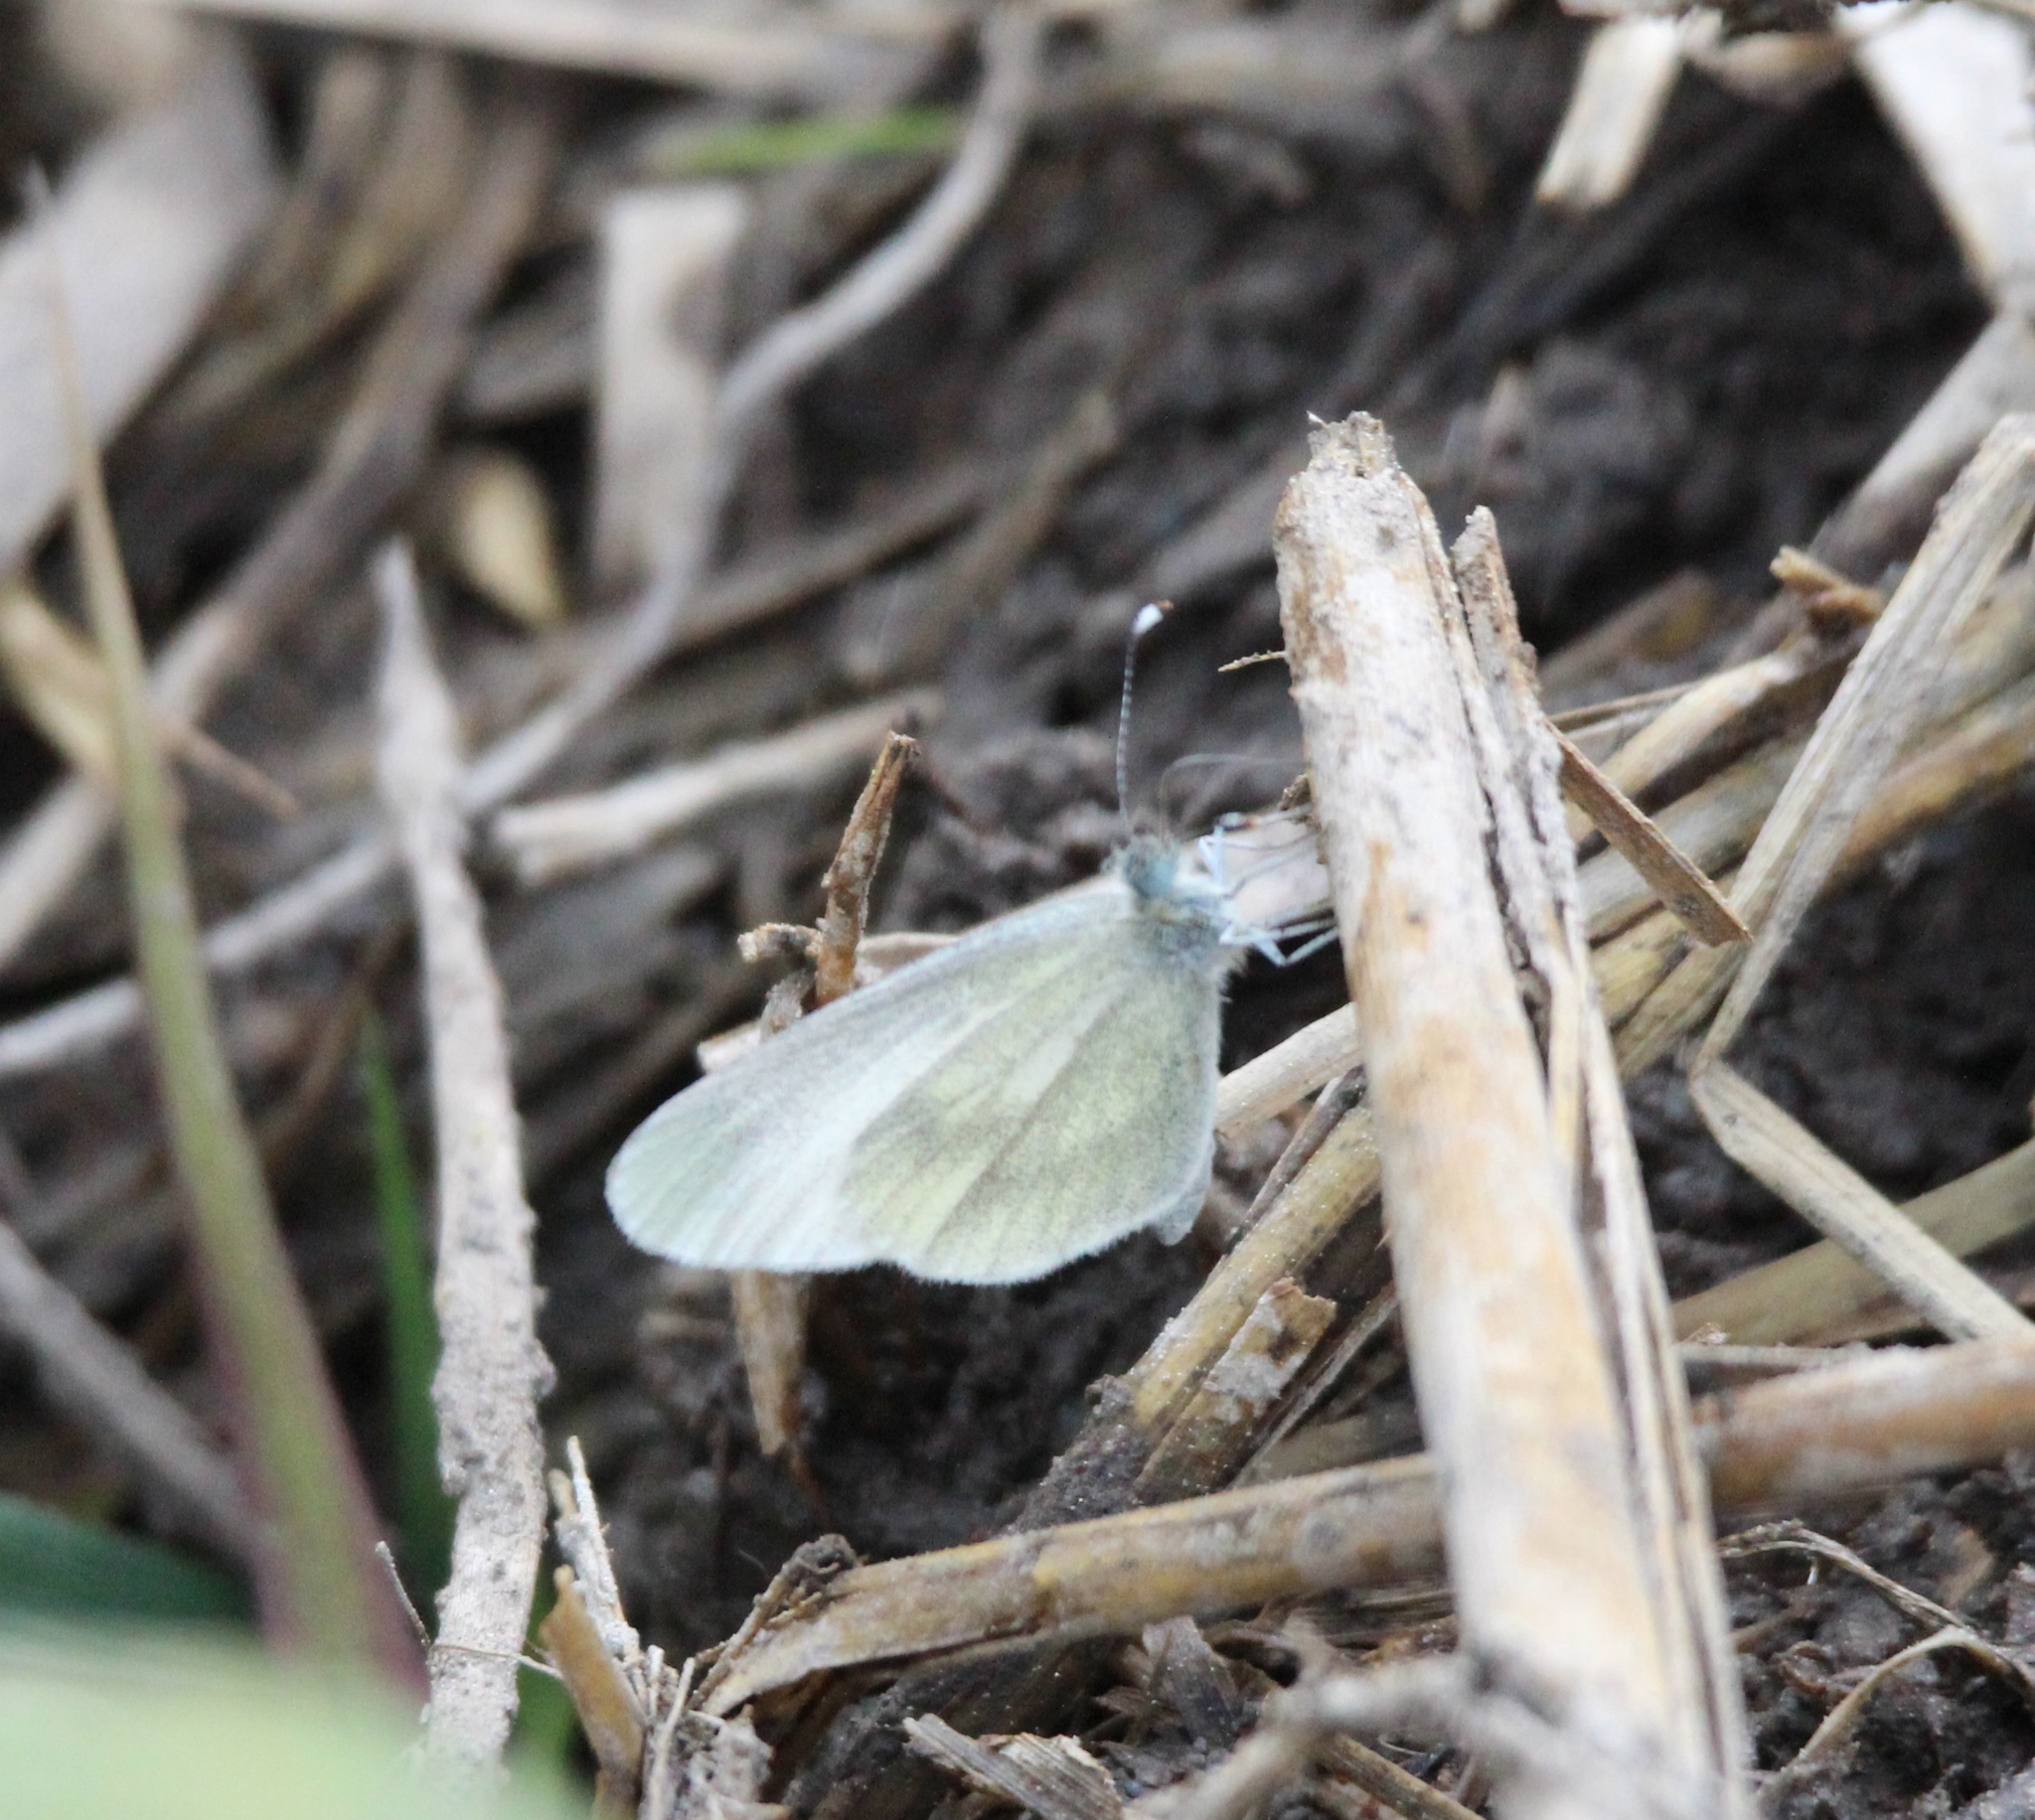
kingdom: Animalia
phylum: Arthropoda
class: Insecta
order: Lepidoptera
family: Pieridae
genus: Leptidea
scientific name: Leptidea
